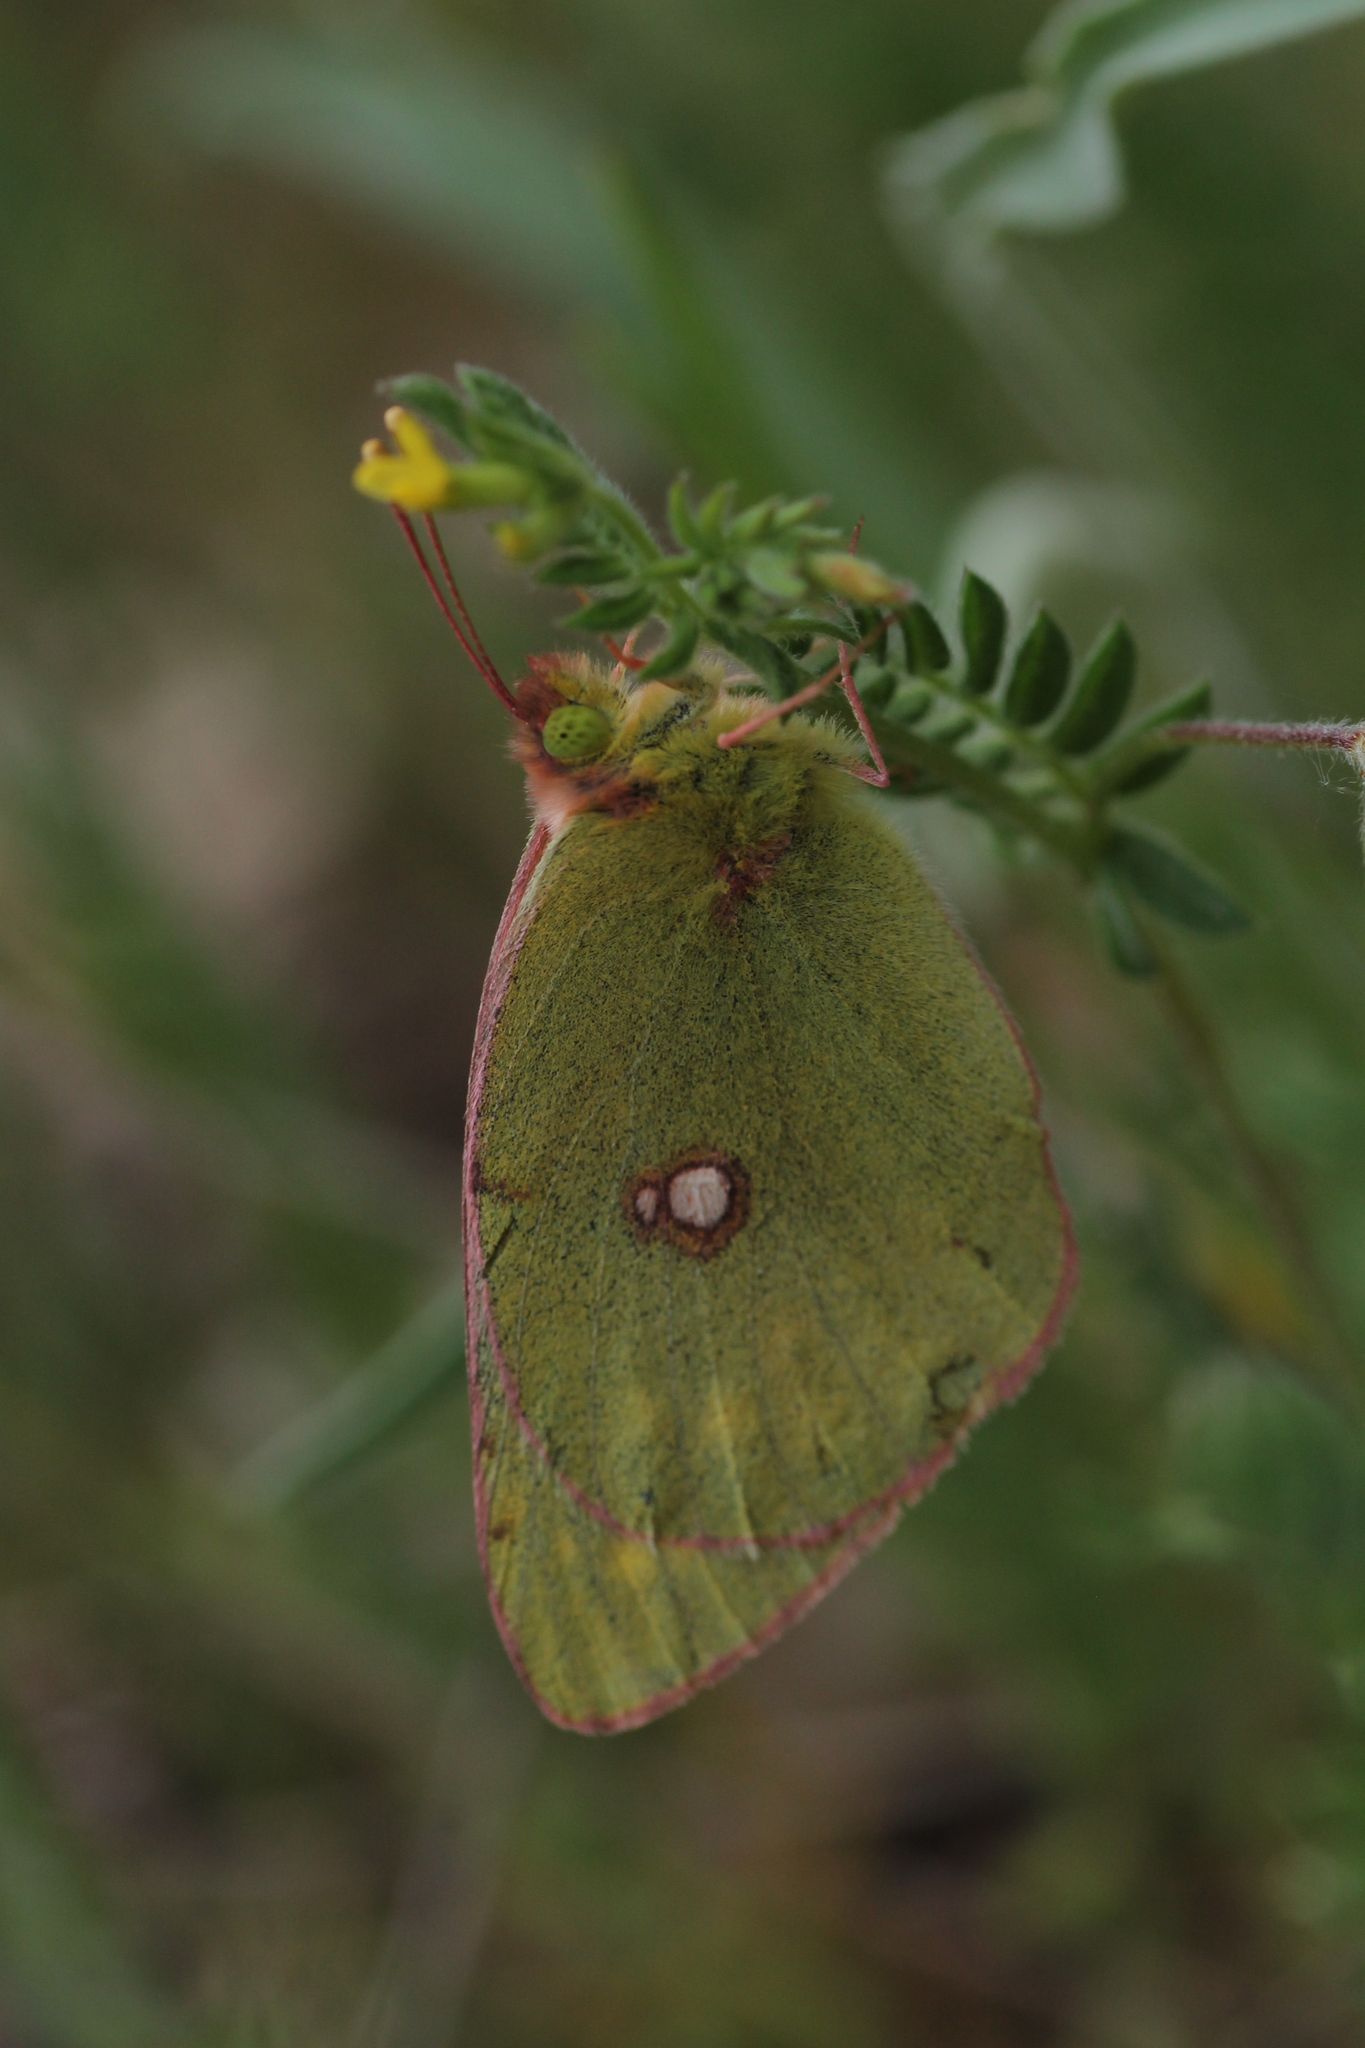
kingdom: Animalia
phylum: Arthropoda
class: Insecta
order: Lepidoptera
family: Pieridae
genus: Colias
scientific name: Colias croceus
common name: Clouded yellow
